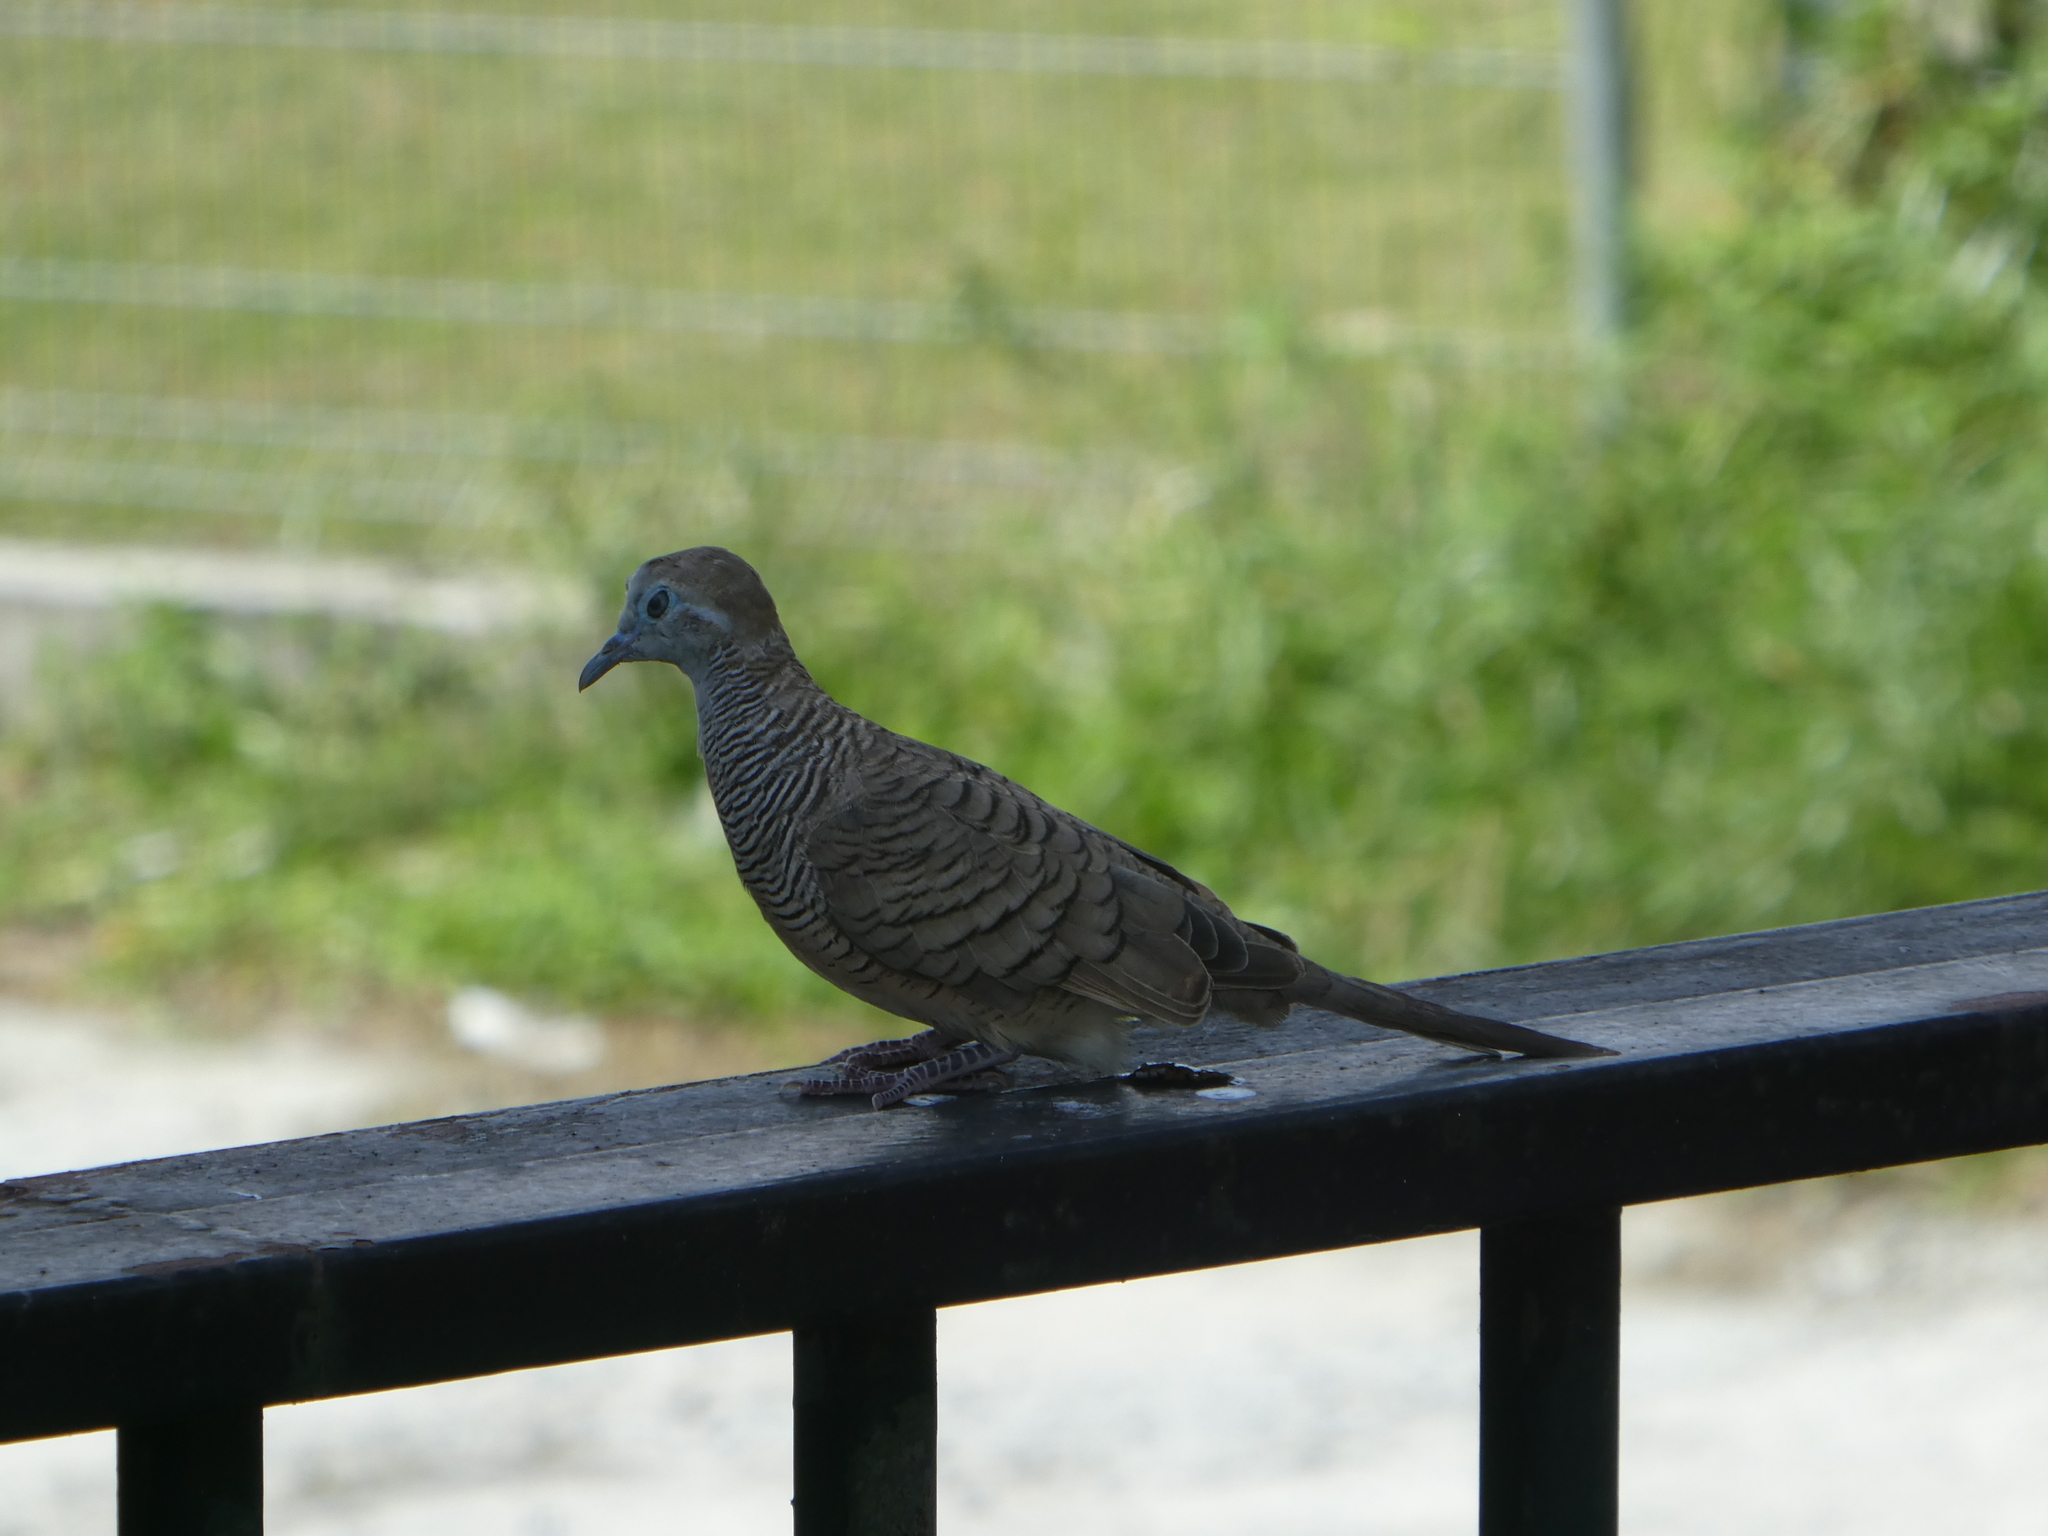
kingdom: Animalia
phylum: Chordata
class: Aves
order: Columbiformes
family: Columbidae
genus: Geopelia
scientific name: Geopelia striata
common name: Zebra dove
